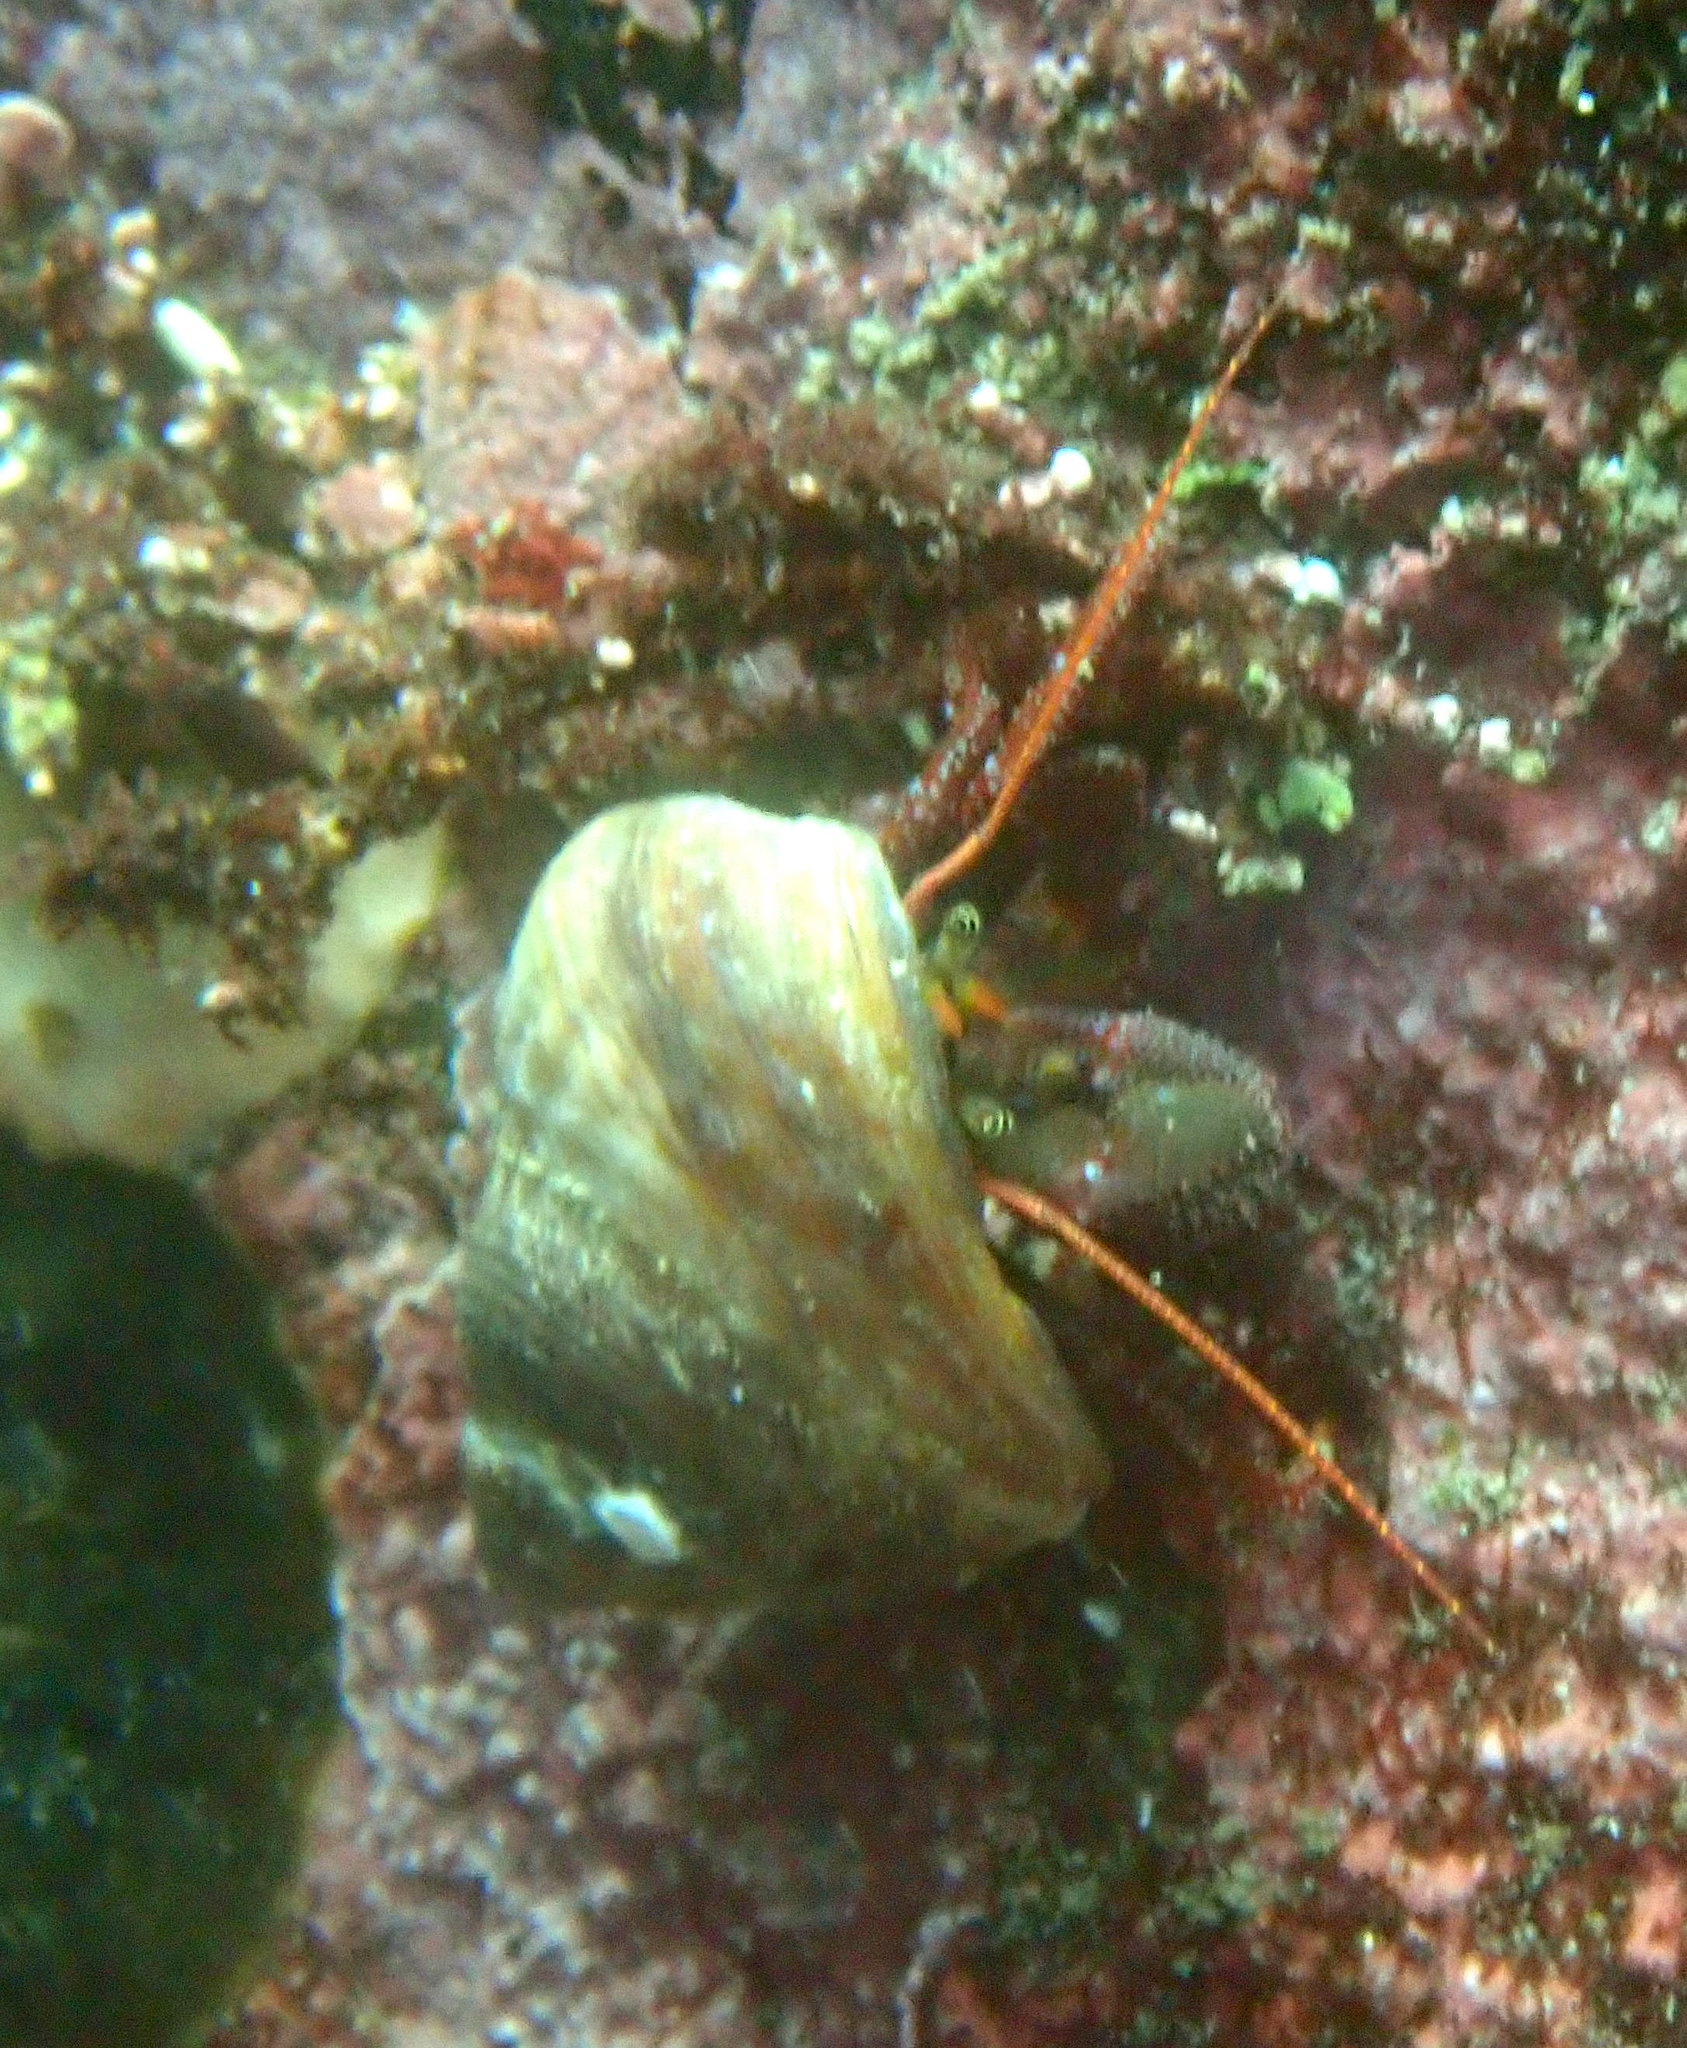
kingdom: Animalia
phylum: Arthropoda
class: Malacostraca
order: Decapoda
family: Paguridae
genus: Pagurus
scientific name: Pagurus hemphilli
